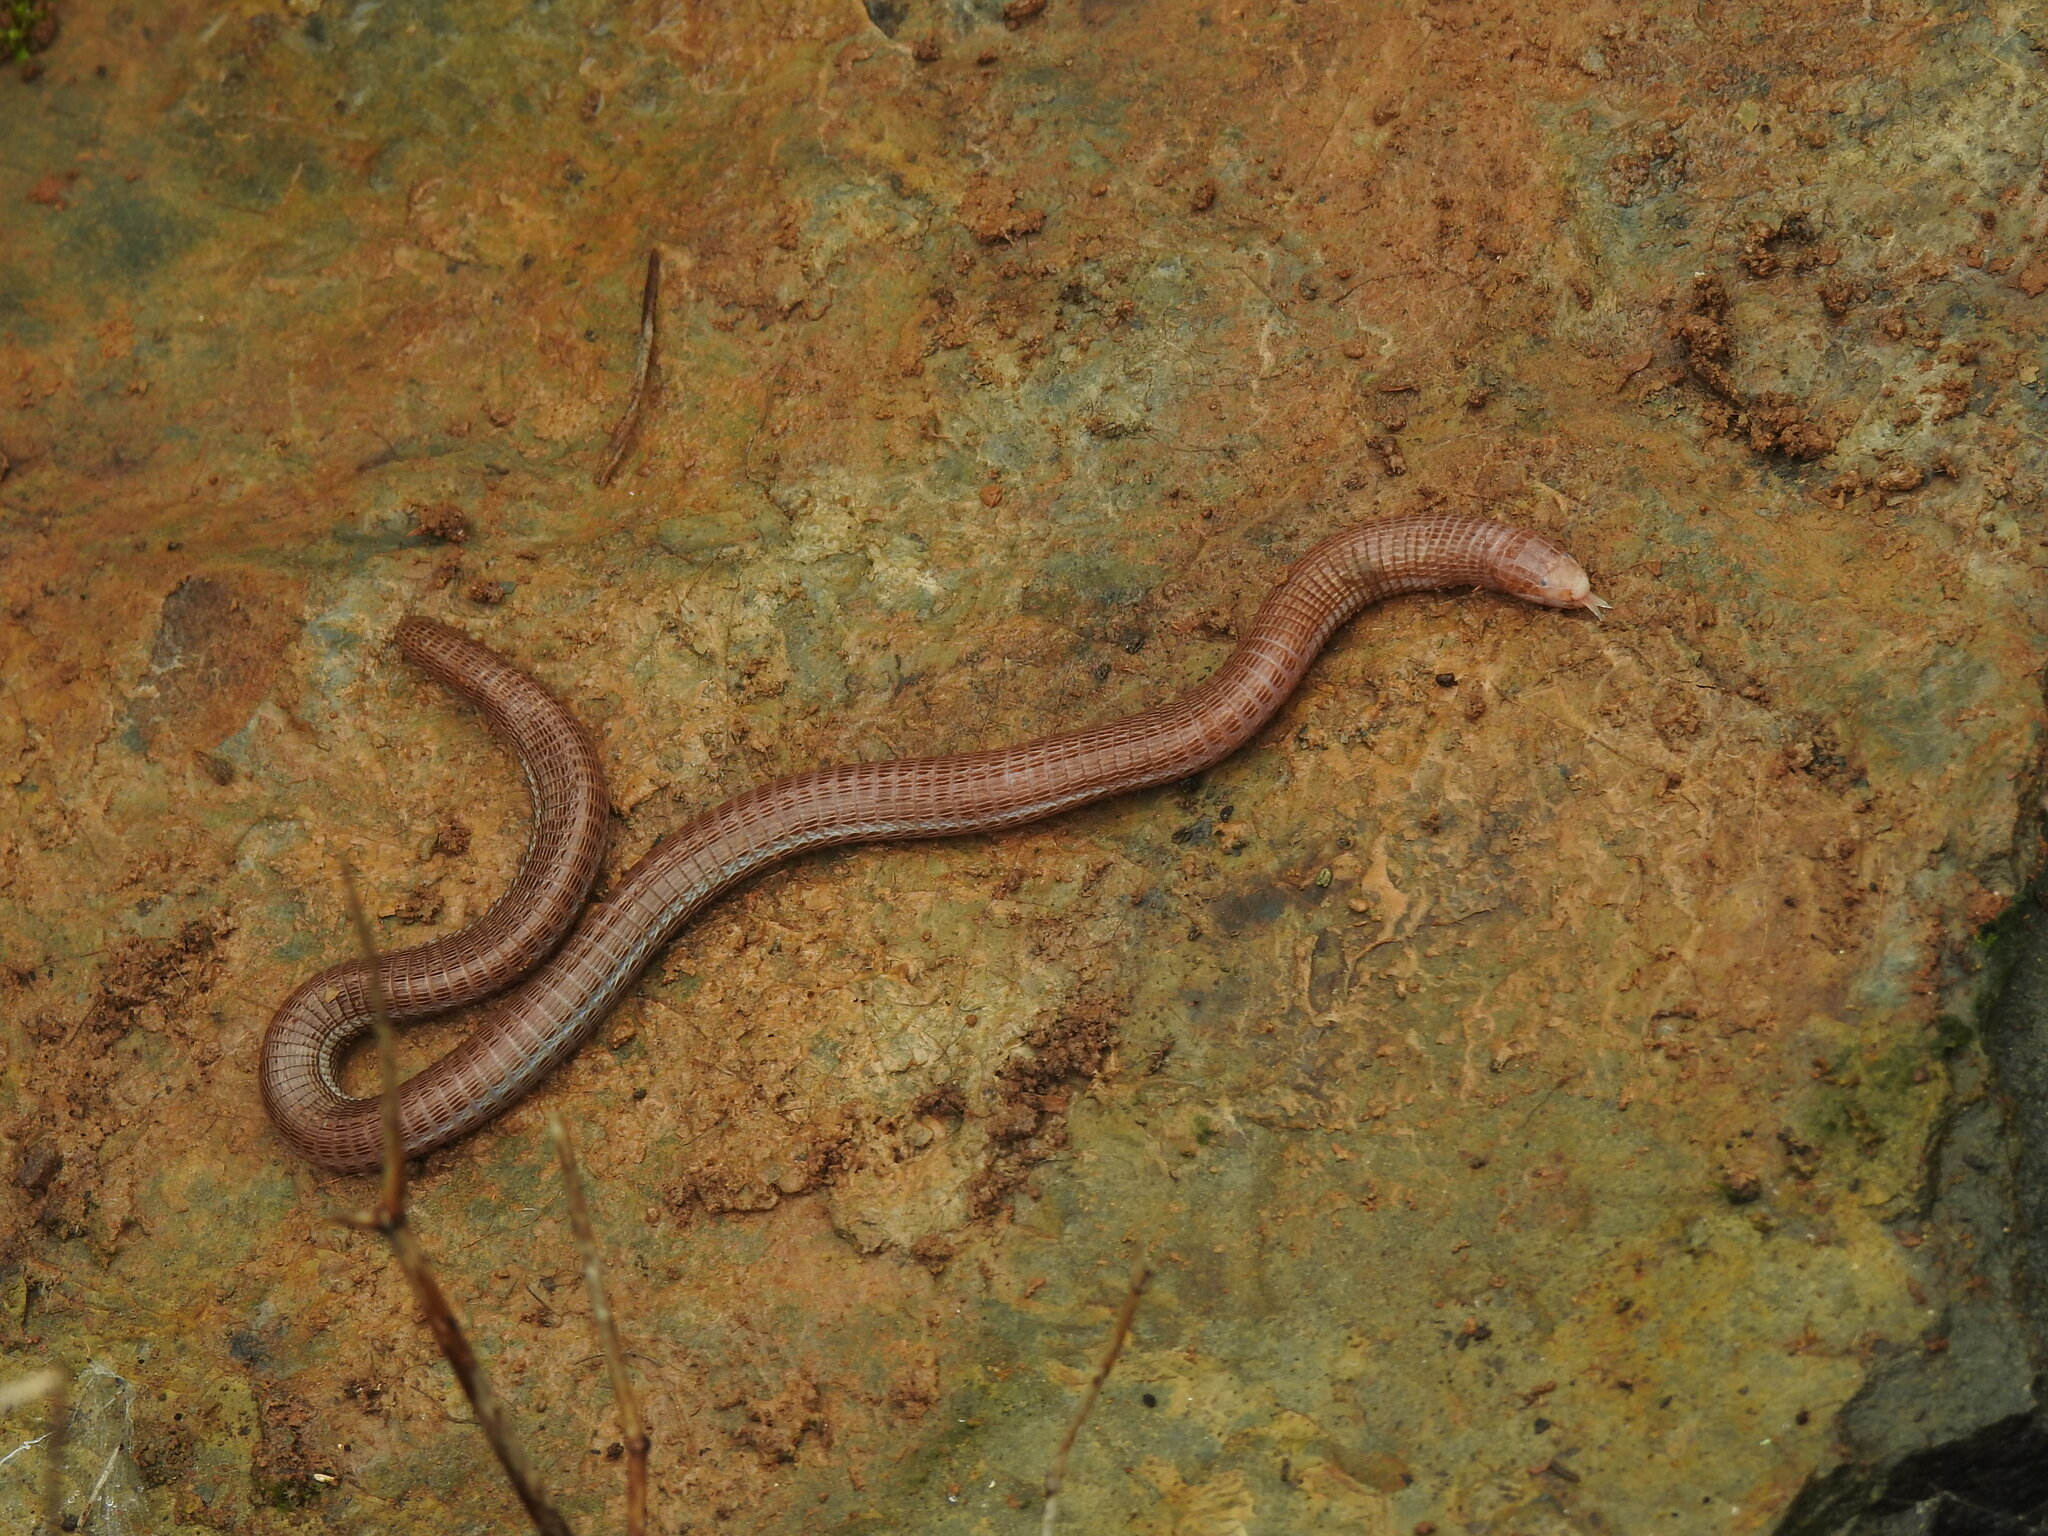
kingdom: Animalia
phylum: Chordata
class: Squamata
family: Blanidae
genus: Blanus
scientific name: Blanus cinereus
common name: Mediterranean worm lizard
